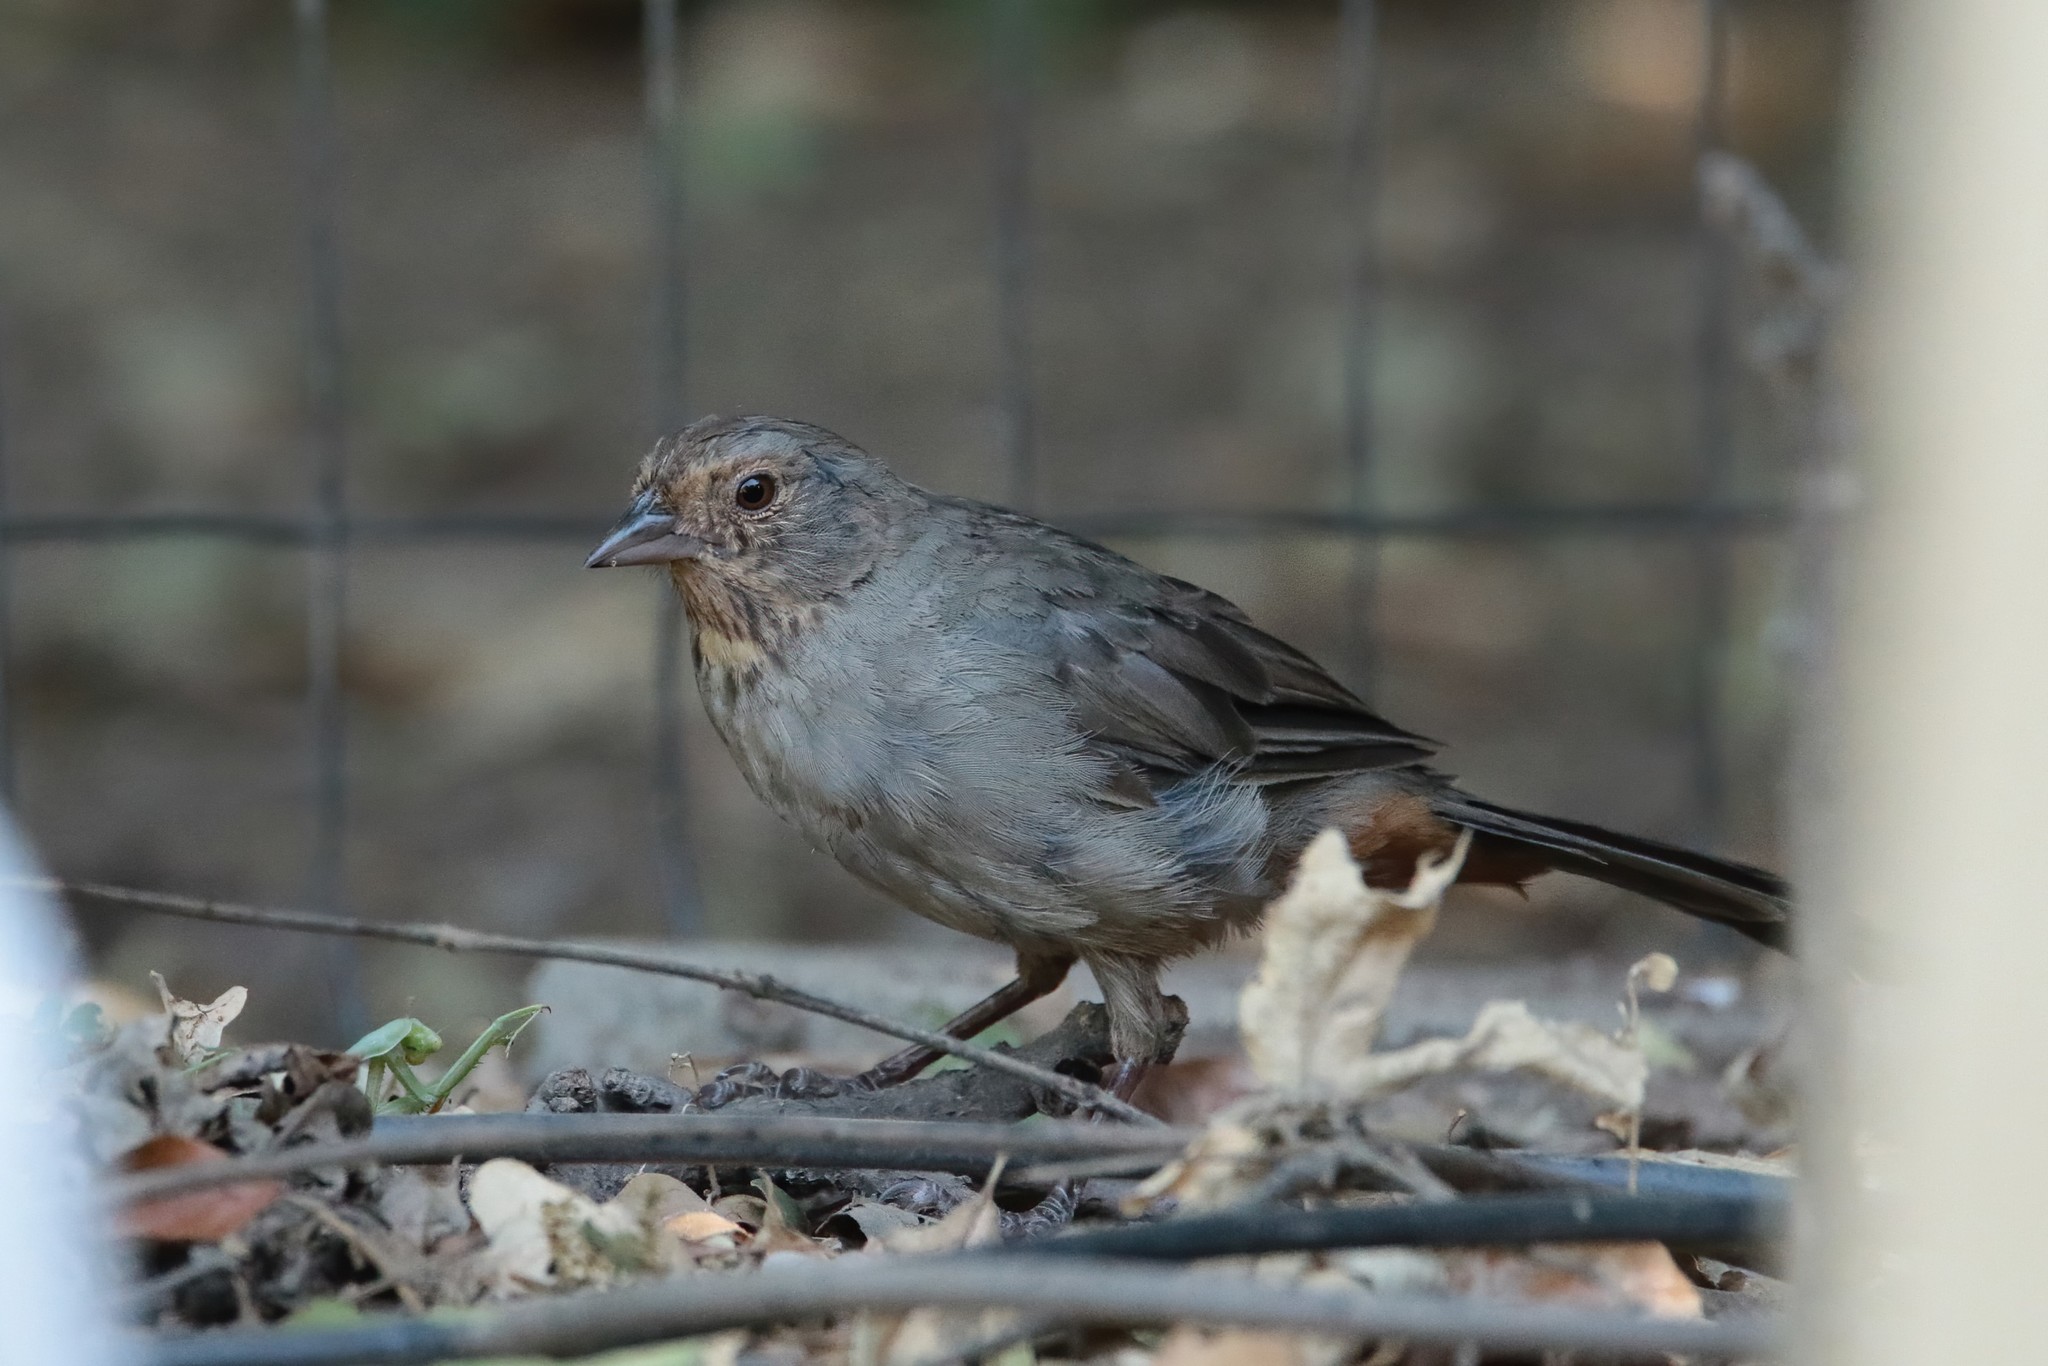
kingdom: Animalia
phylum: Chordata
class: Aves
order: Passeriformes
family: Passerellidae
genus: Melozone
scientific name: Melozone crissalis
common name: California towhee
